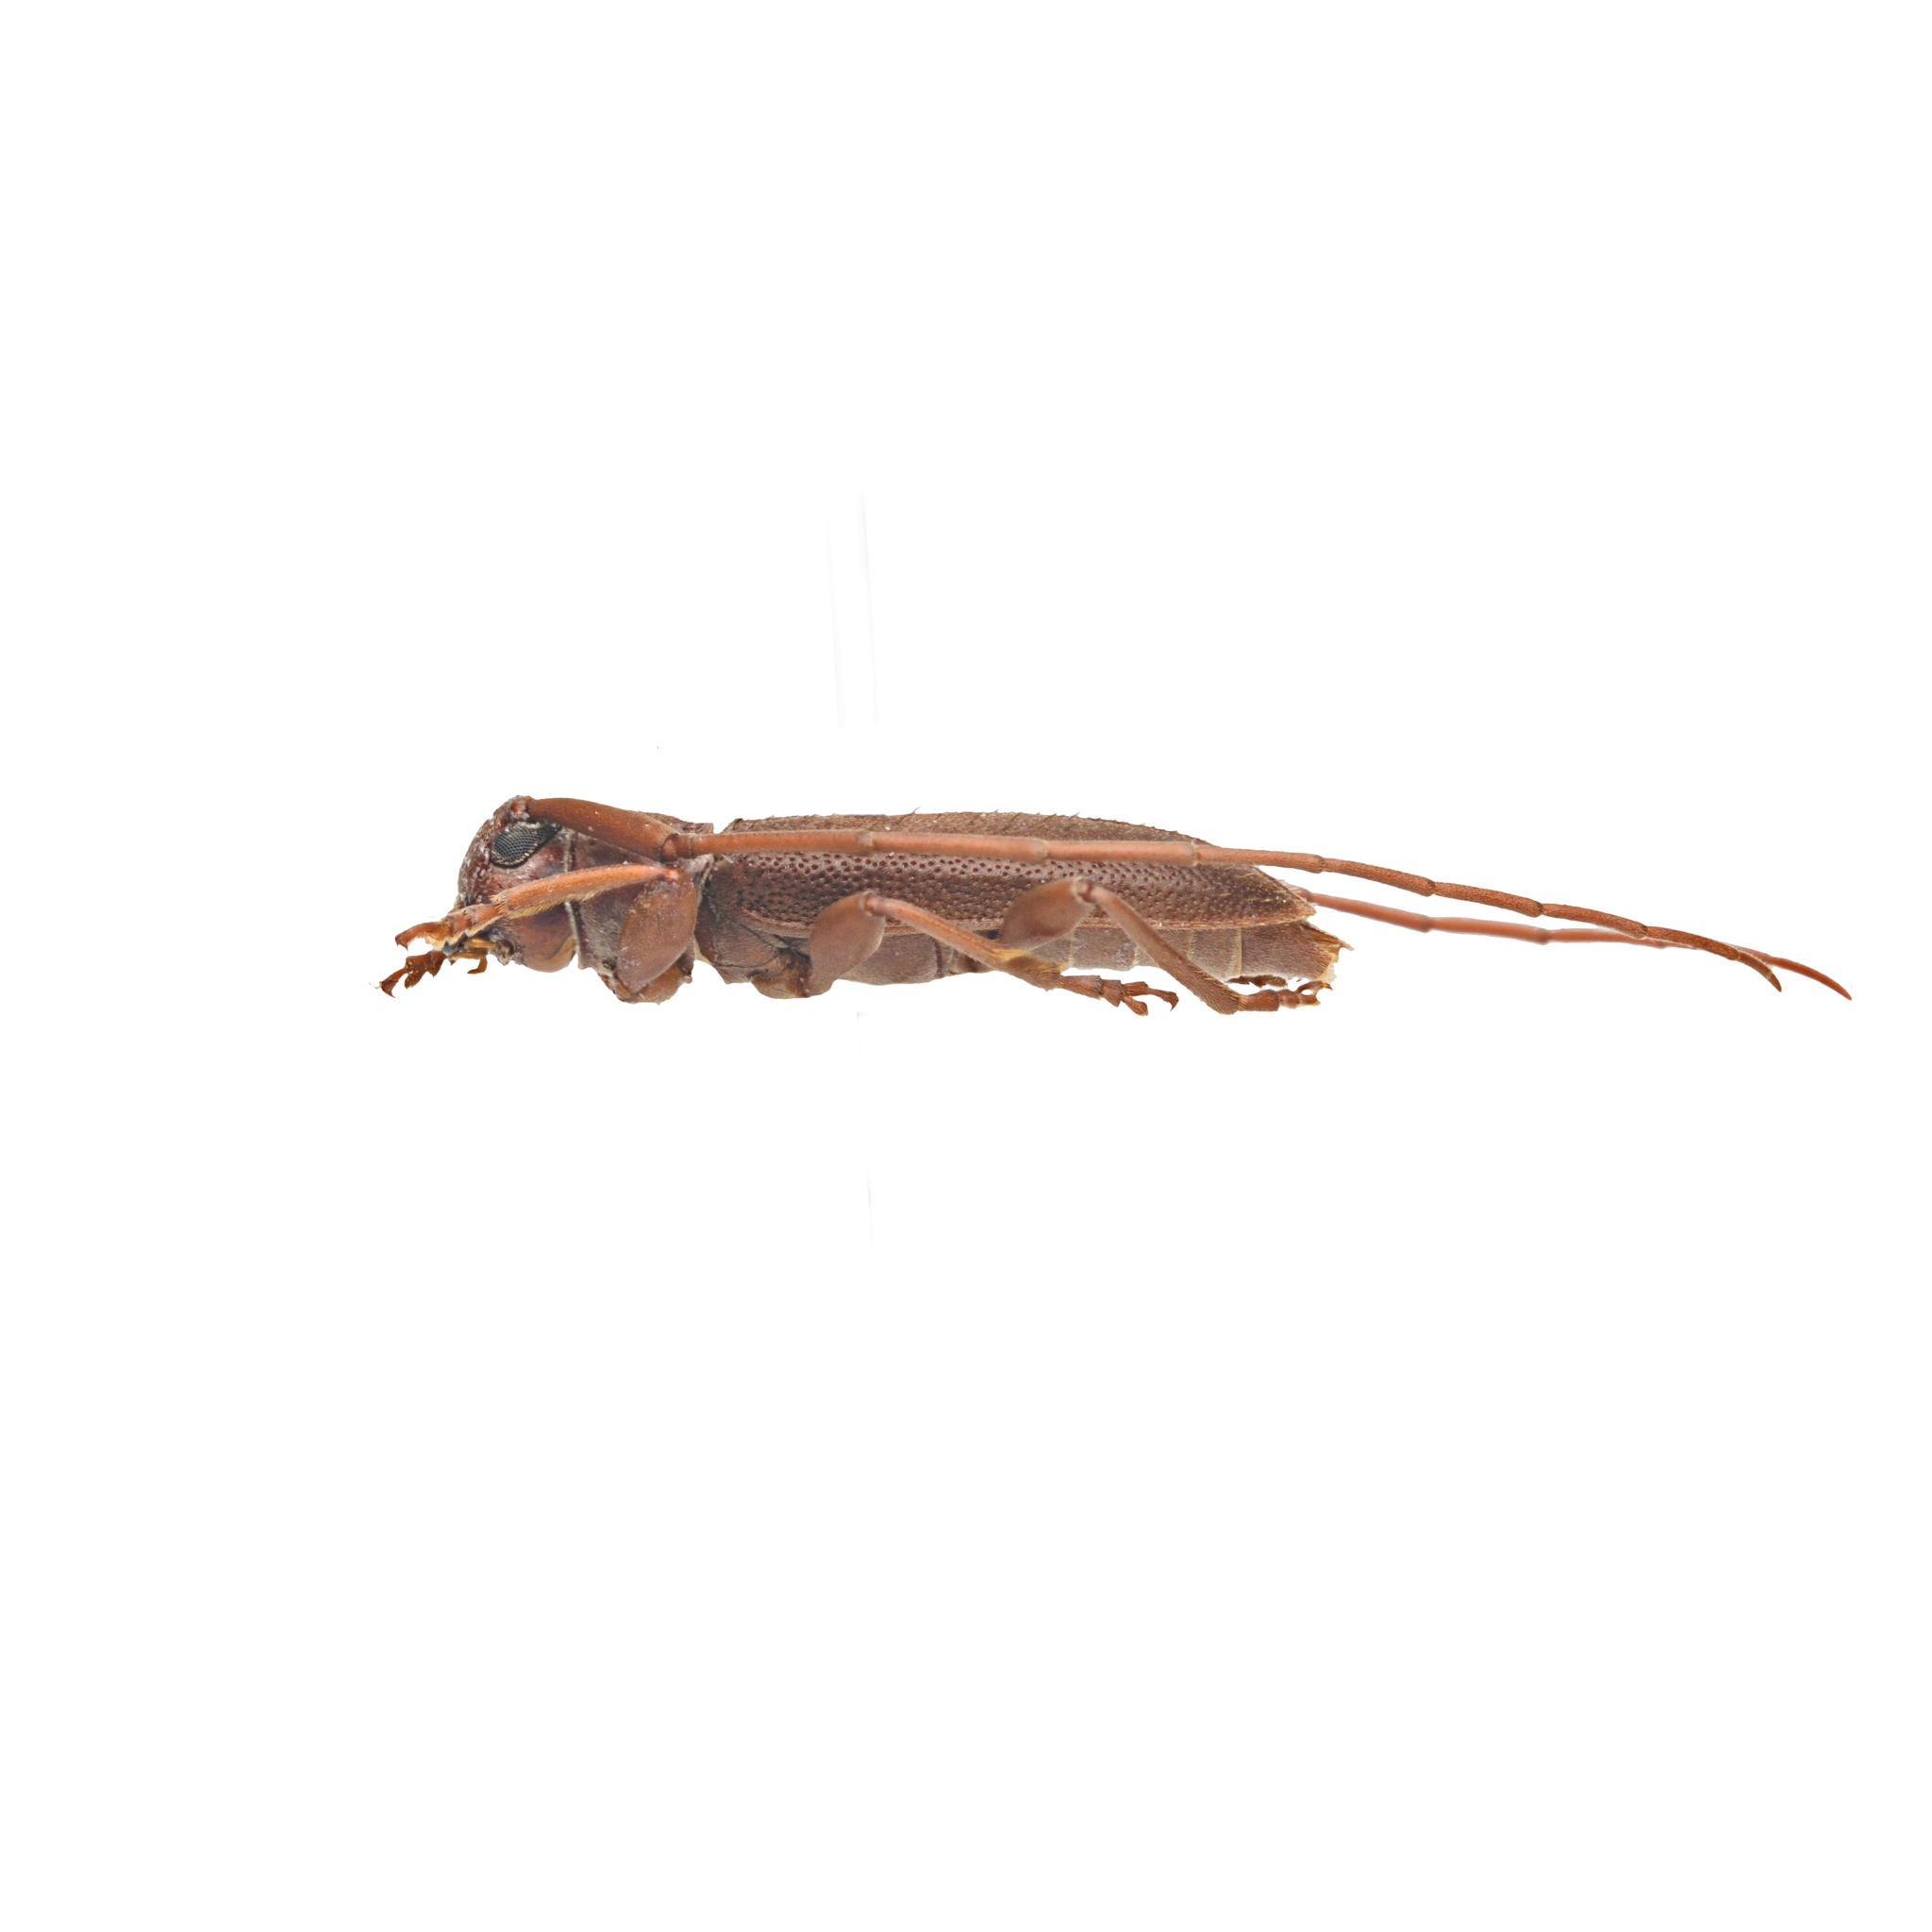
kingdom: Animalia
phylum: Arthropoda
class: Insecta
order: Coleoptera
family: Cerambycidae
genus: Valenus
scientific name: Valenus inornatus
